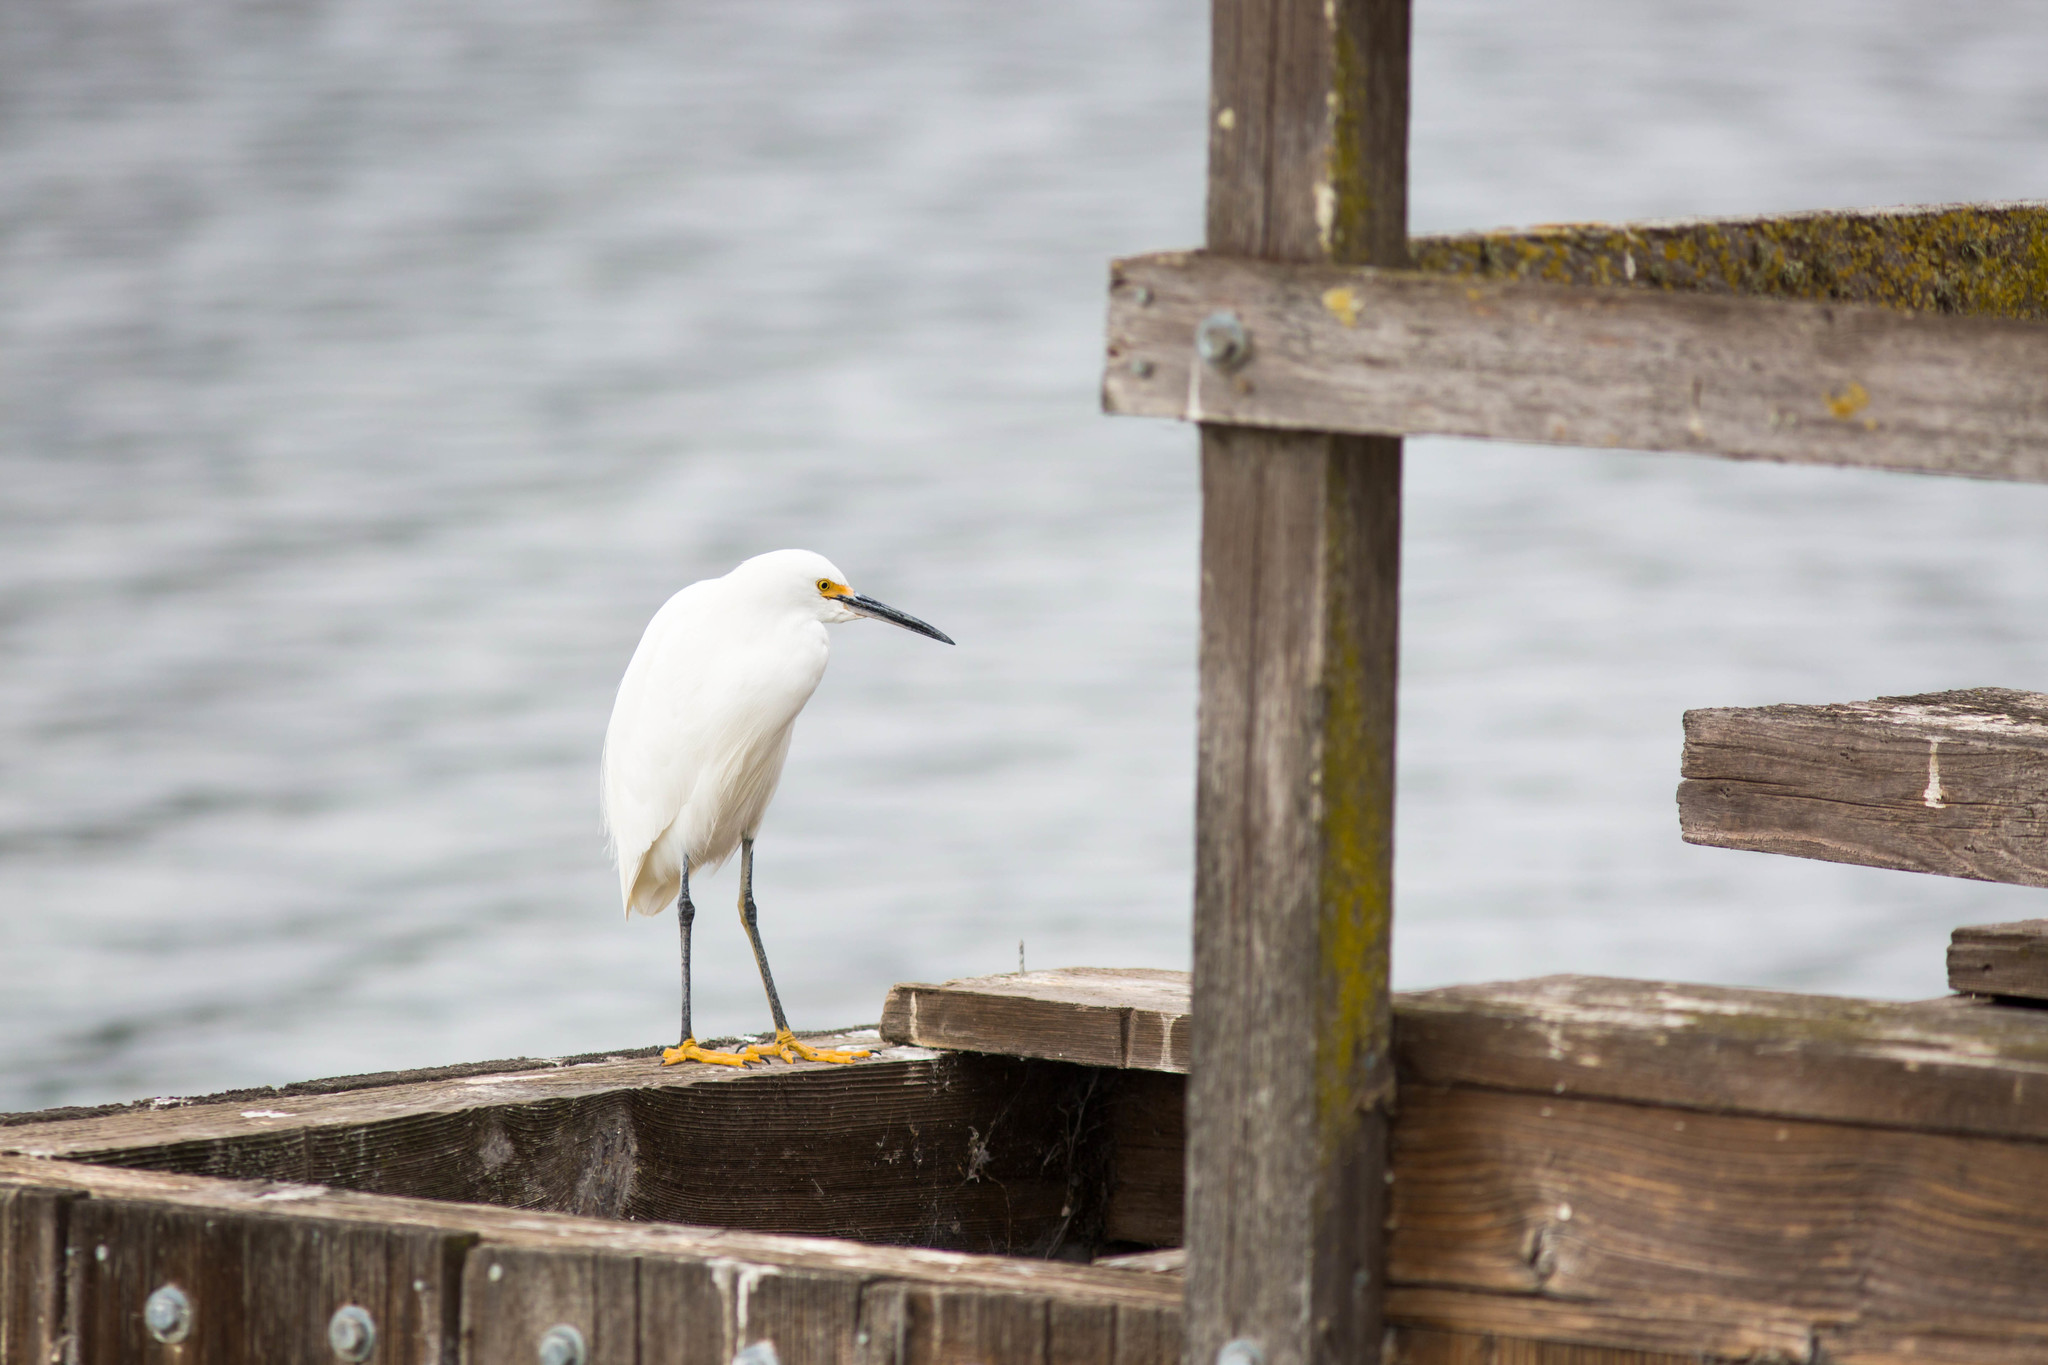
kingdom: Animalia
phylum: Chordata
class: Aves
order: Pelecaniformes
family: Ardeidae
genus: Egretta
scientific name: Egretta thula
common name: Snowy egret
